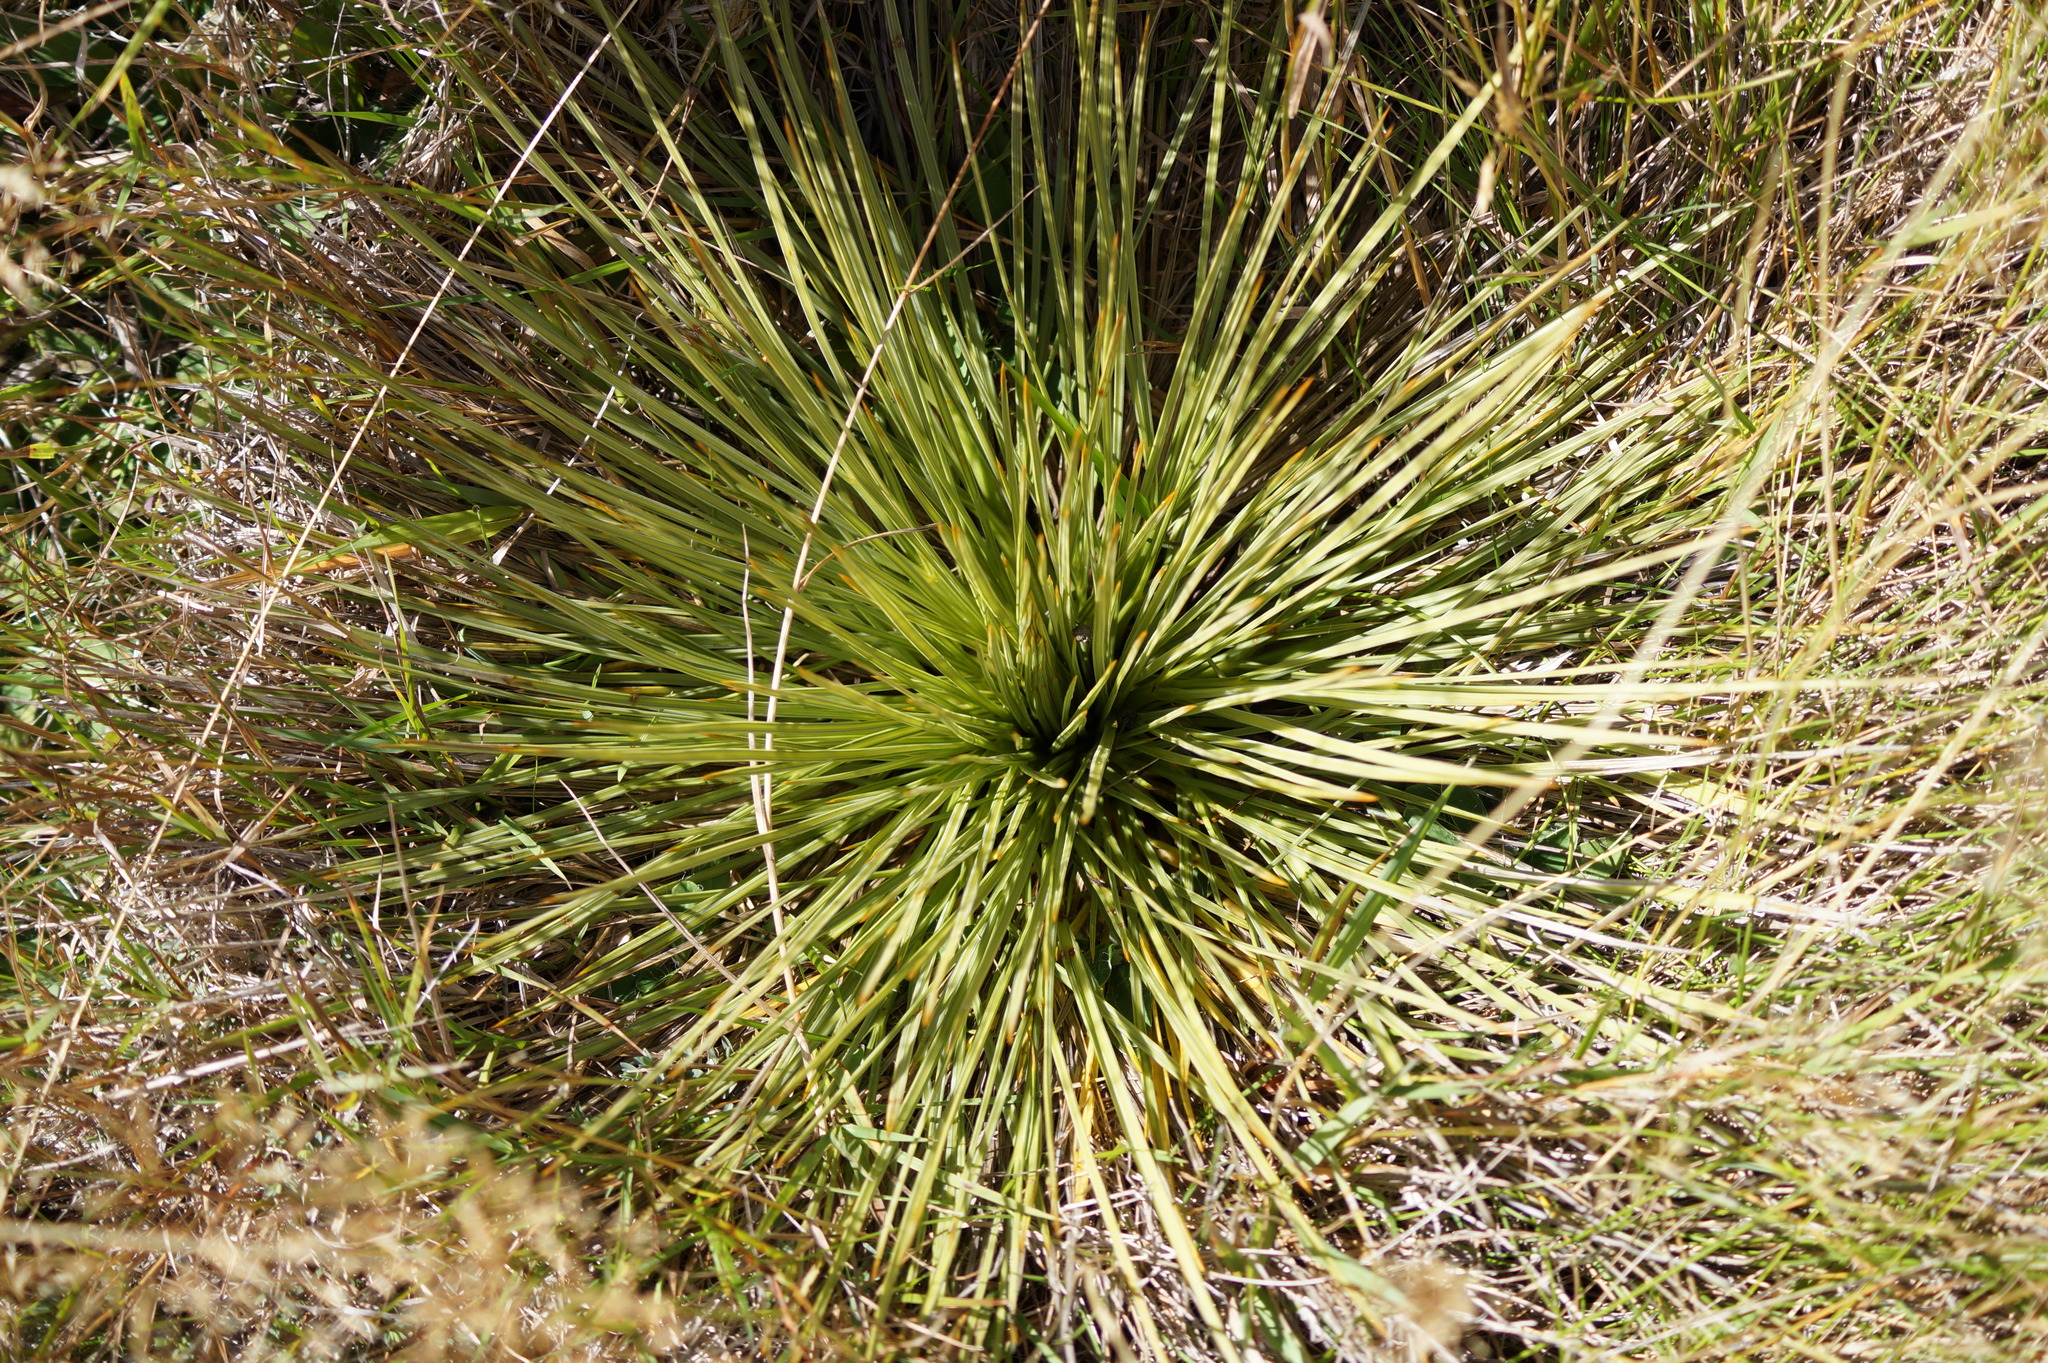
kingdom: Plantae
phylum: Tracheophyta
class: Magnoliopsida
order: Apiales
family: Apiaceae
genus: Aciphylla
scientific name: Aciphylla subflabellata
